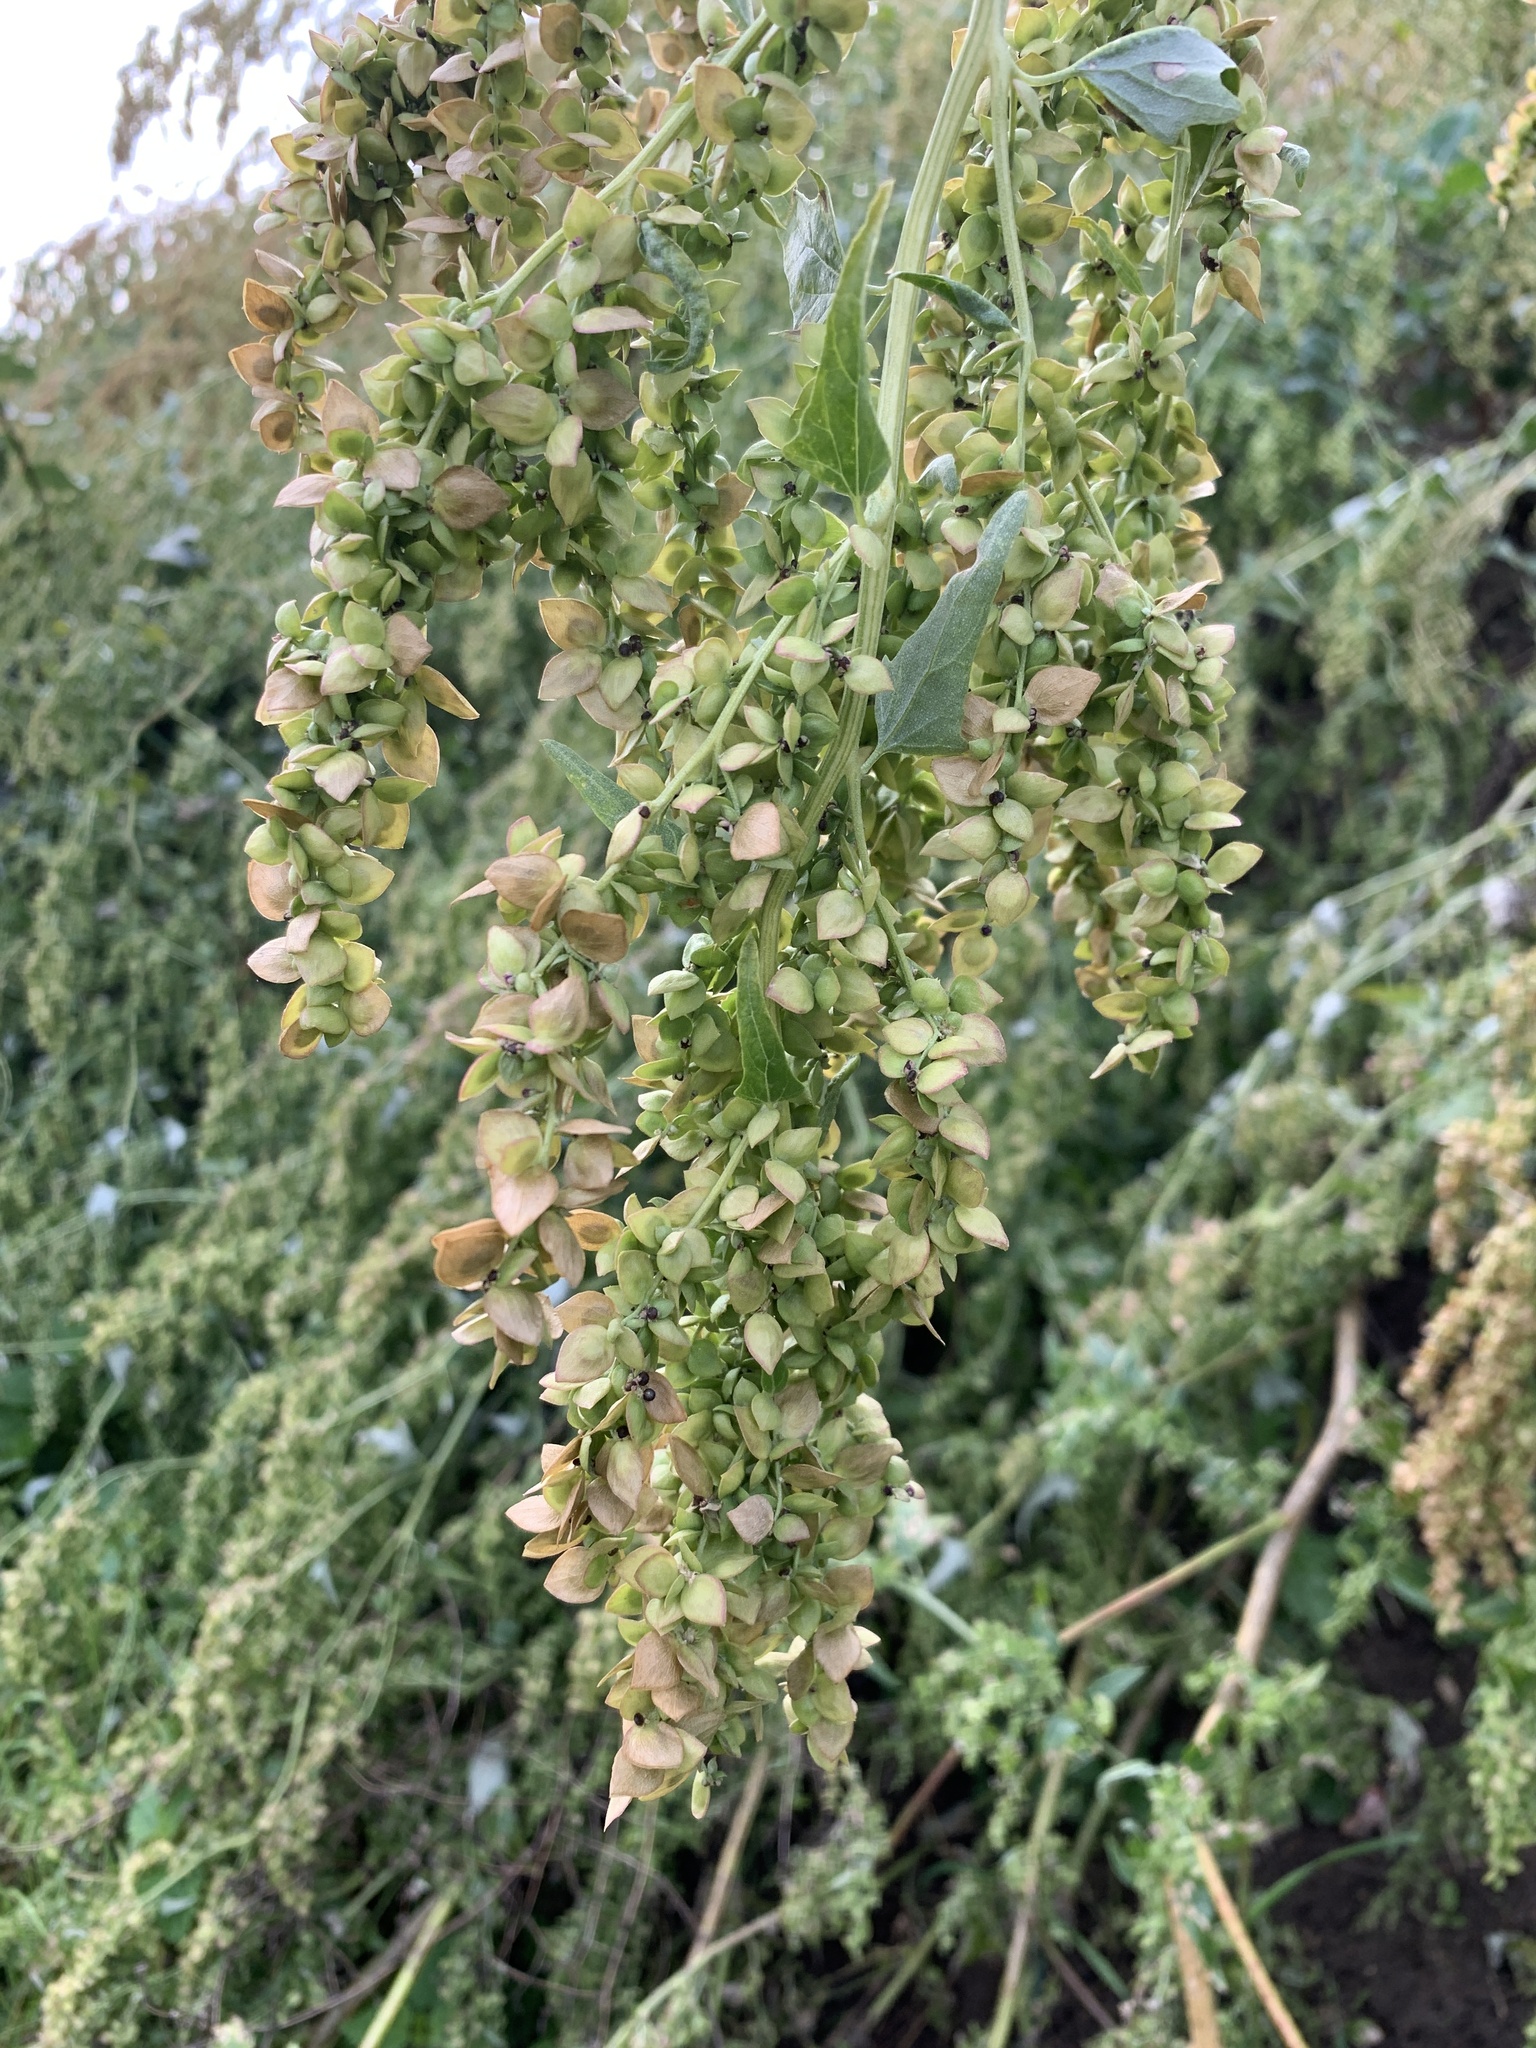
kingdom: Plantae
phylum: Tracheophyta
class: Magnoliopsida
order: Caryophyllales
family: Amaranthaceae
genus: Atriplex
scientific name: Atriplex sagittata
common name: Purple orache
